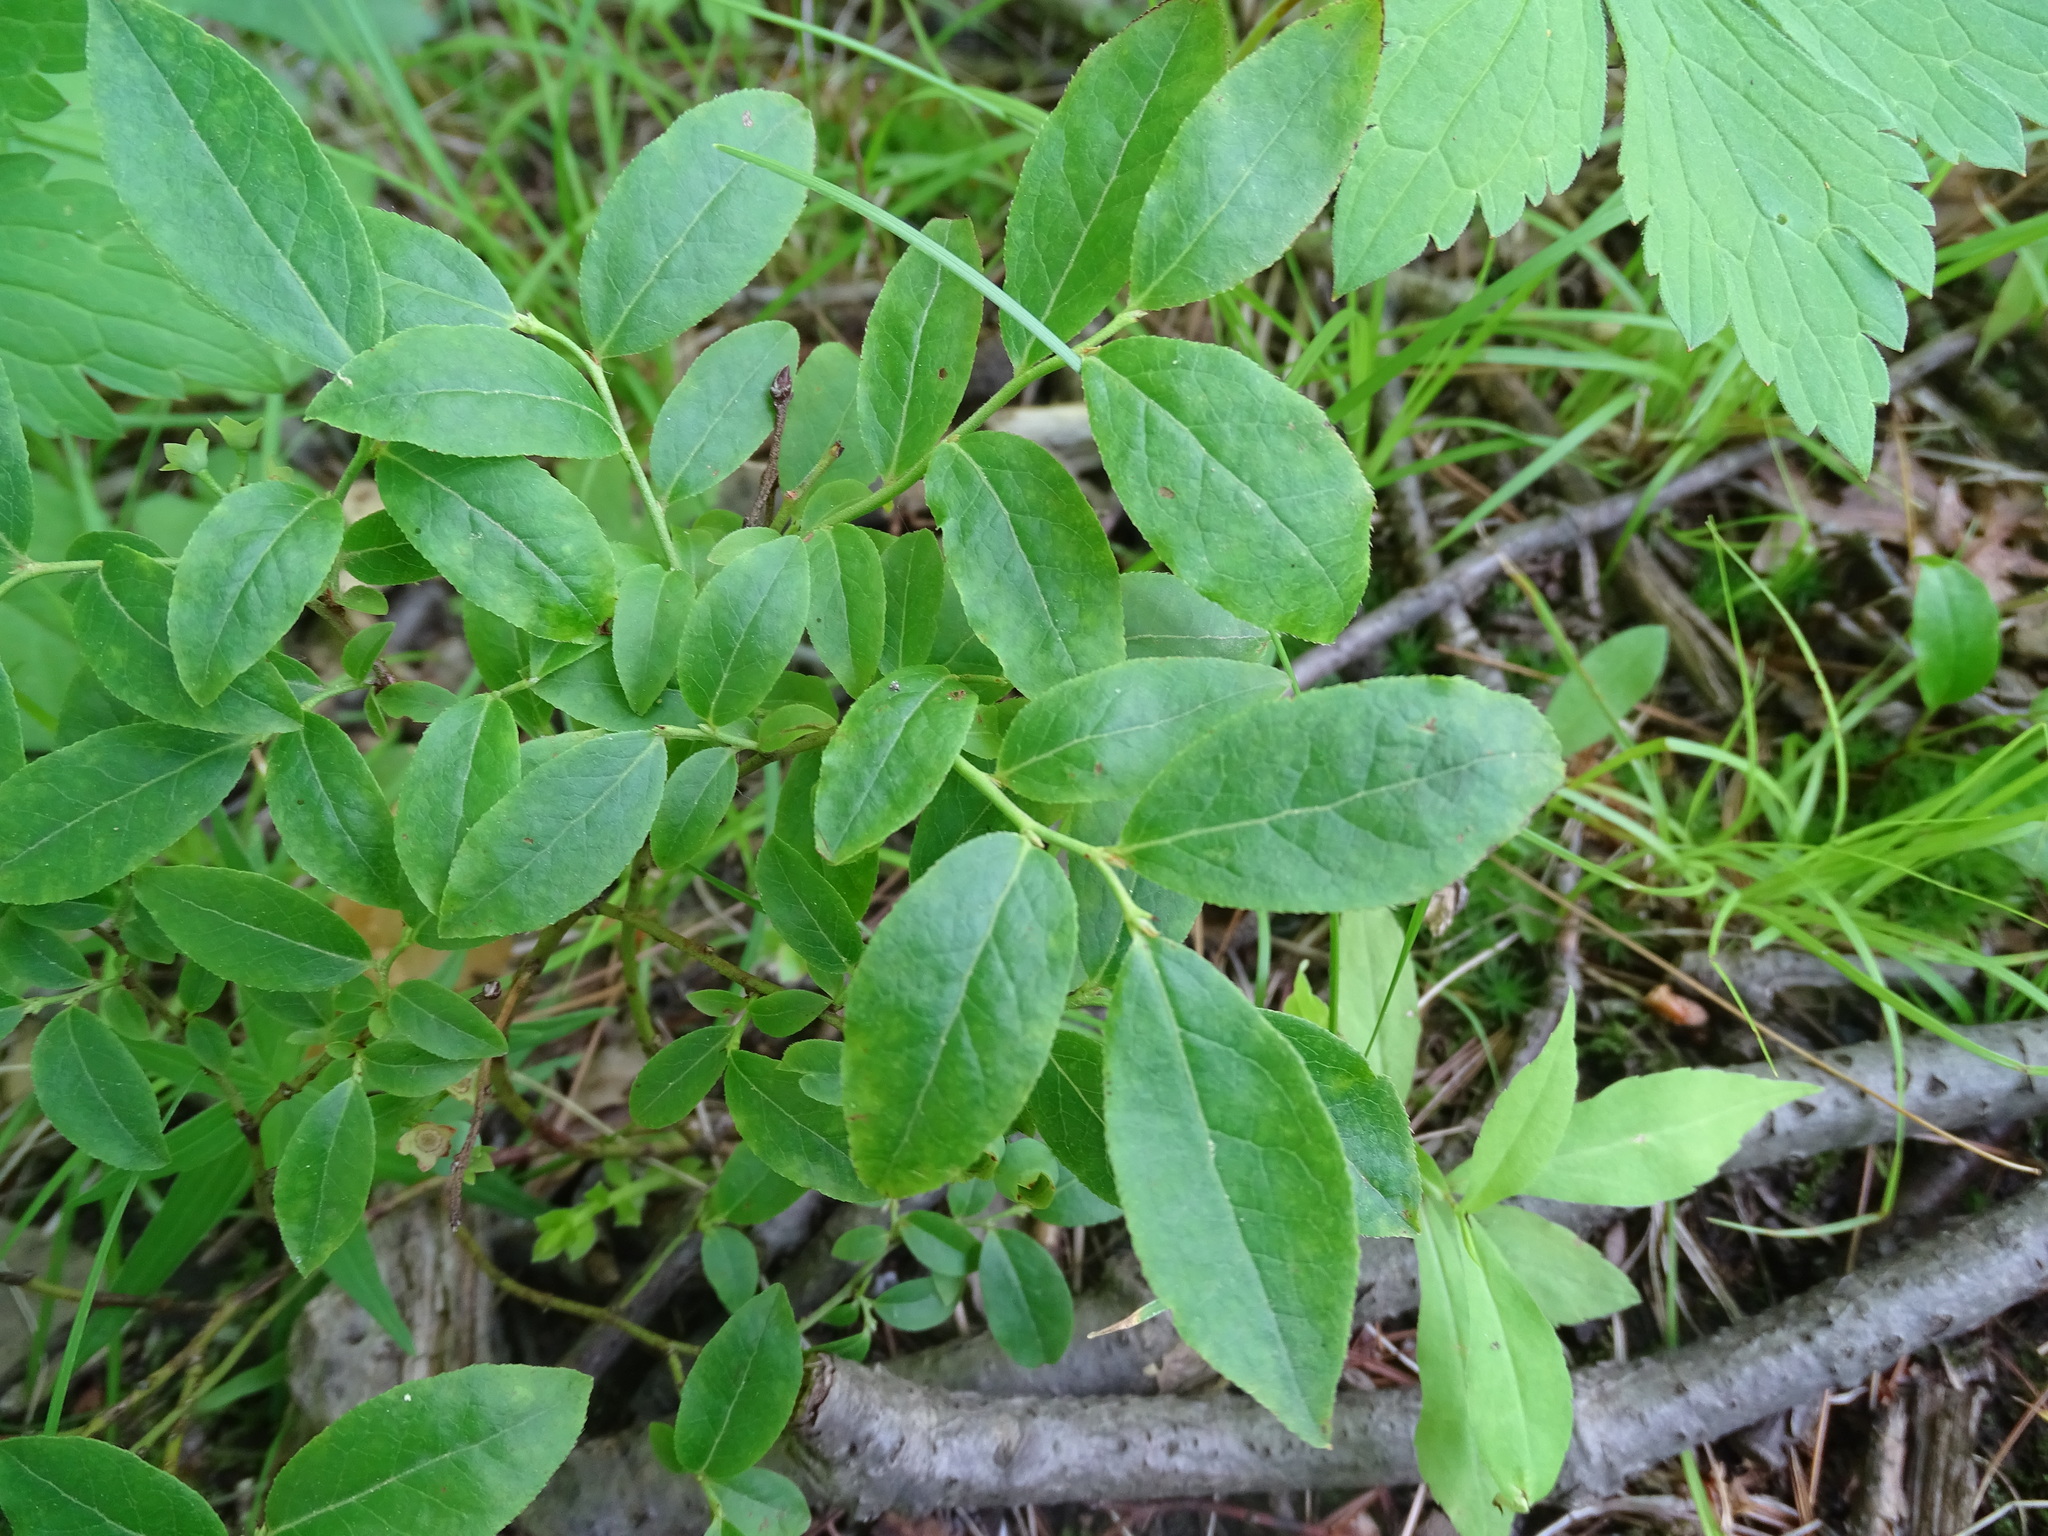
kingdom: Plantae
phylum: Tracheophyta
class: Magnoliopsida
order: Ericales
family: Ericaceae
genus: Vaccinium
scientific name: Vaccinium angustifolium
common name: Early lowbush blueberry
